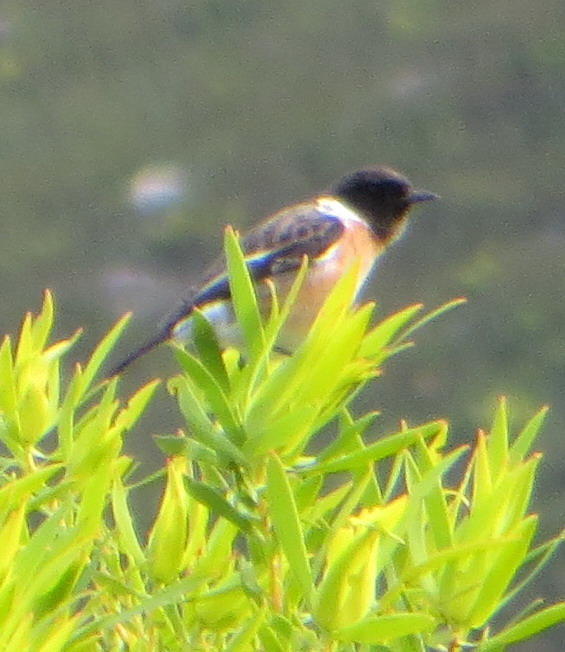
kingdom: Animalia
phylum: Chordata
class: Aves
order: Passeriformes
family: Muscicapidae
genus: Saxicola
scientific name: Saxicola torquatus
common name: African stonechat
